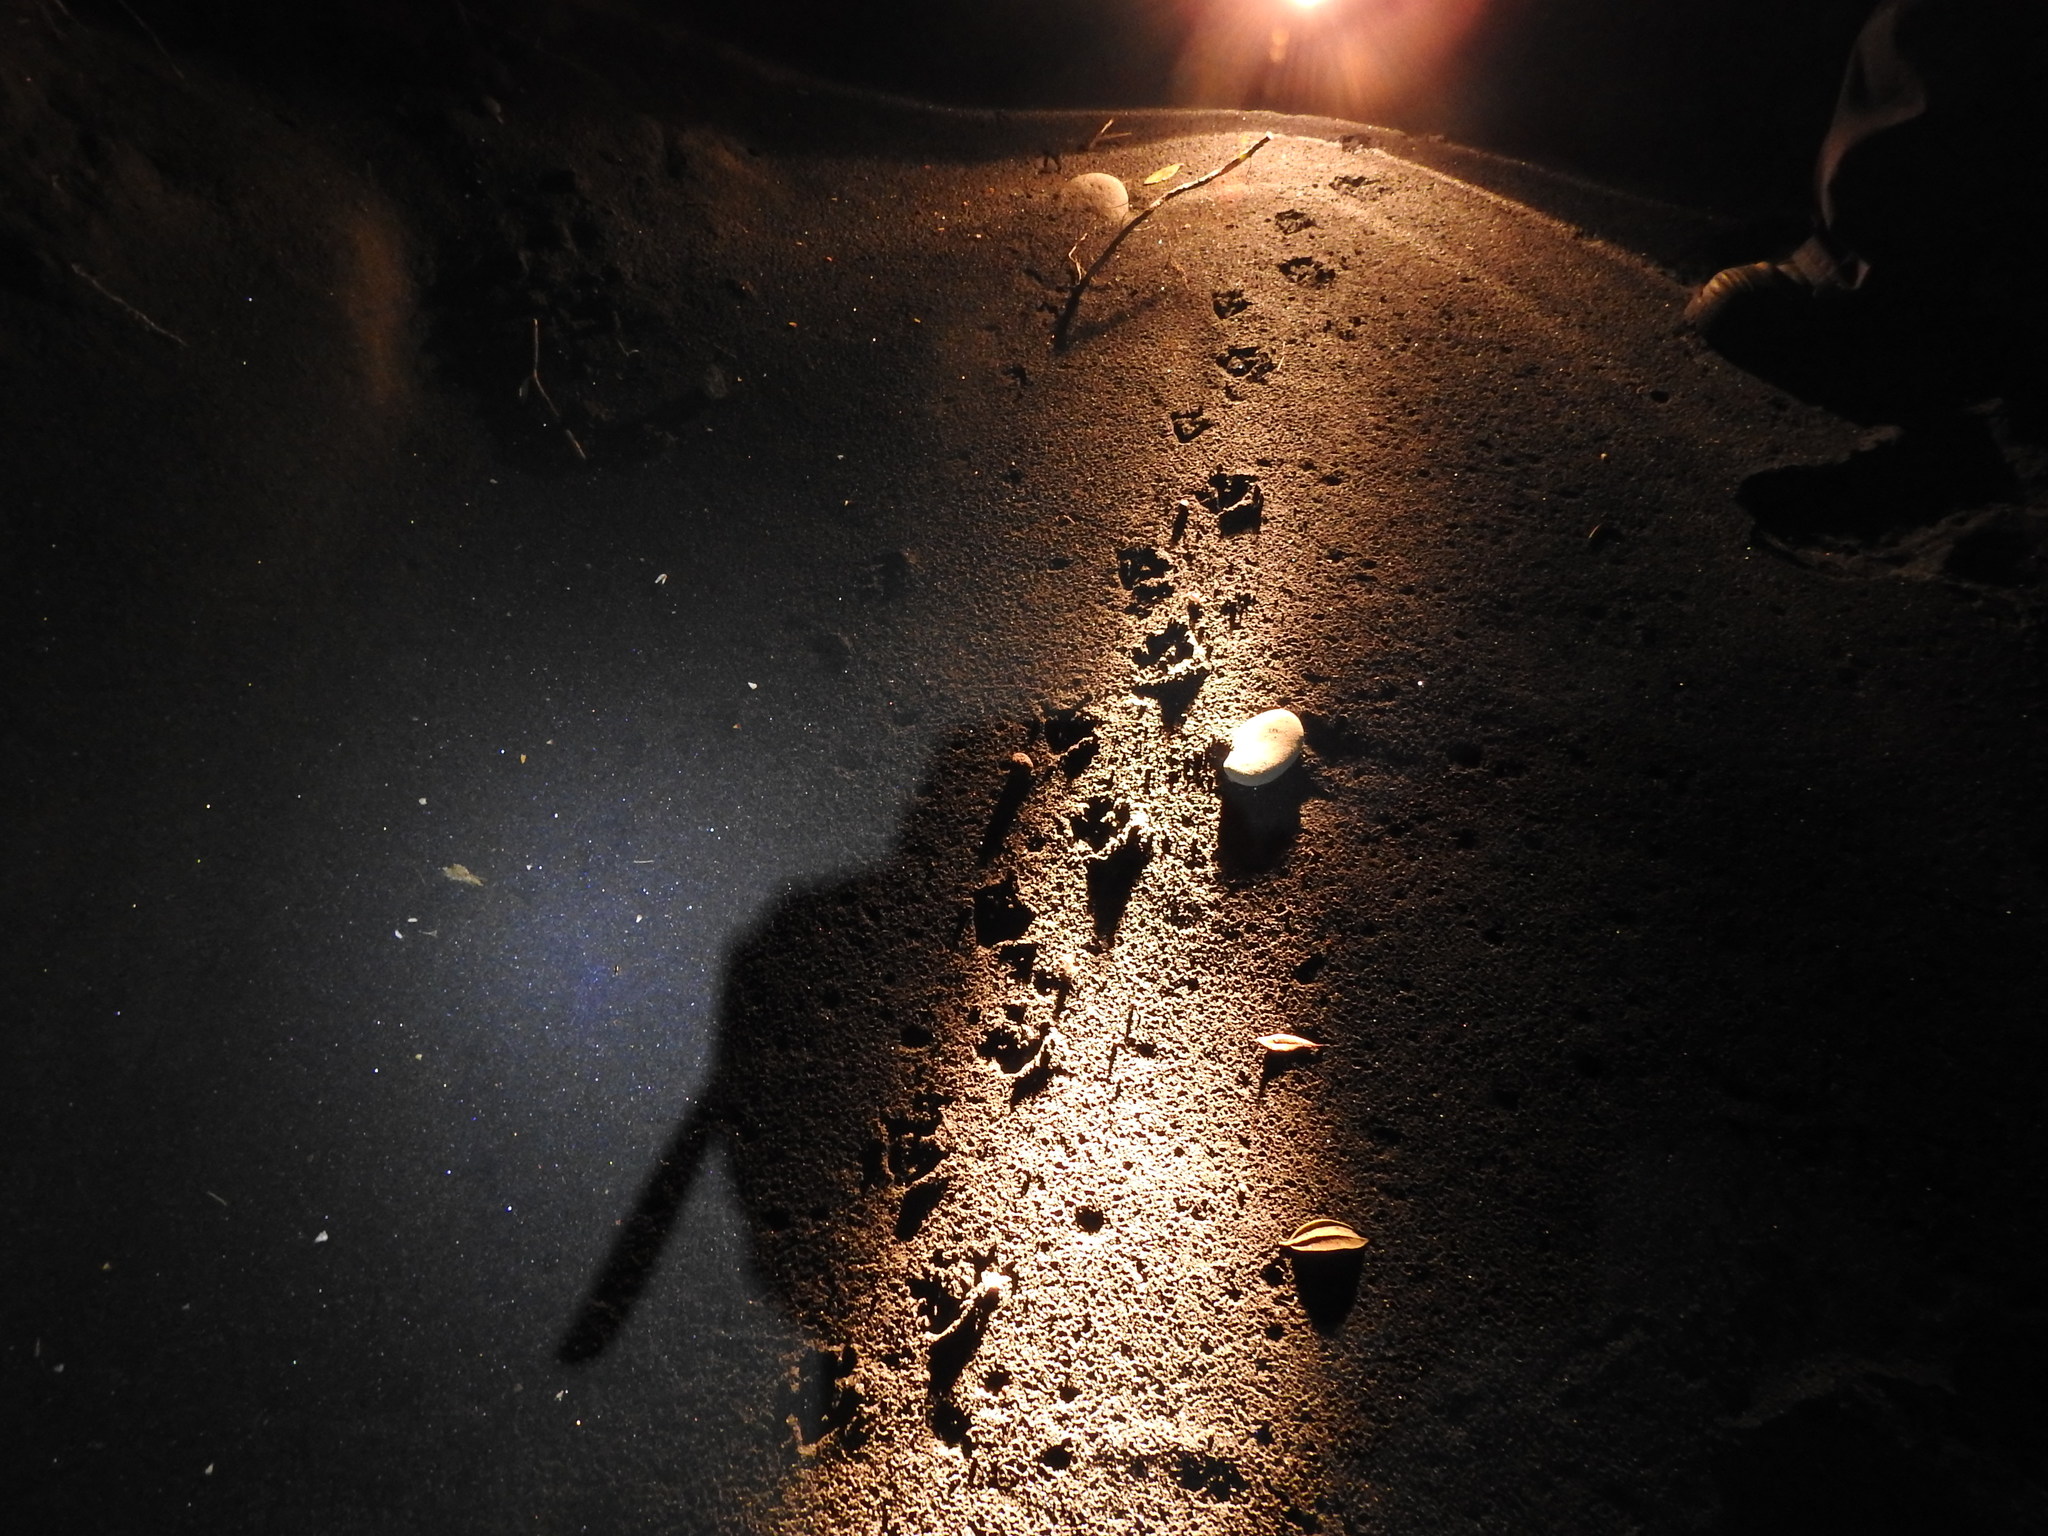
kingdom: Animalia
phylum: Chordata
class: Aves
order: Sphenisciformes
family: Spheniscidae
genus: Eudyptula
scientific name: Eudyptula minor
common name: Little penguin
